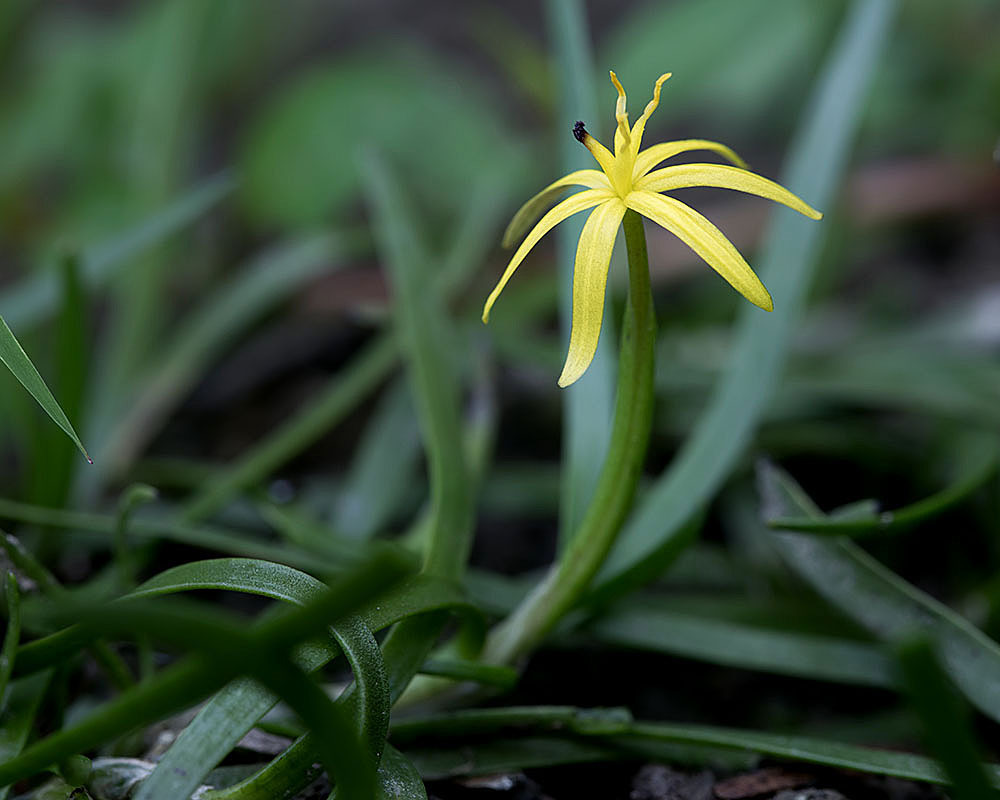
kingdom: Plantae
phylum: Tracheophyta
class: Liliopsida
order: Commelinales
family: Pontederiaceae
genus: Heteranthera
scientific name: Heteranthera dubia
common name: Grass-leaved mud plantain
